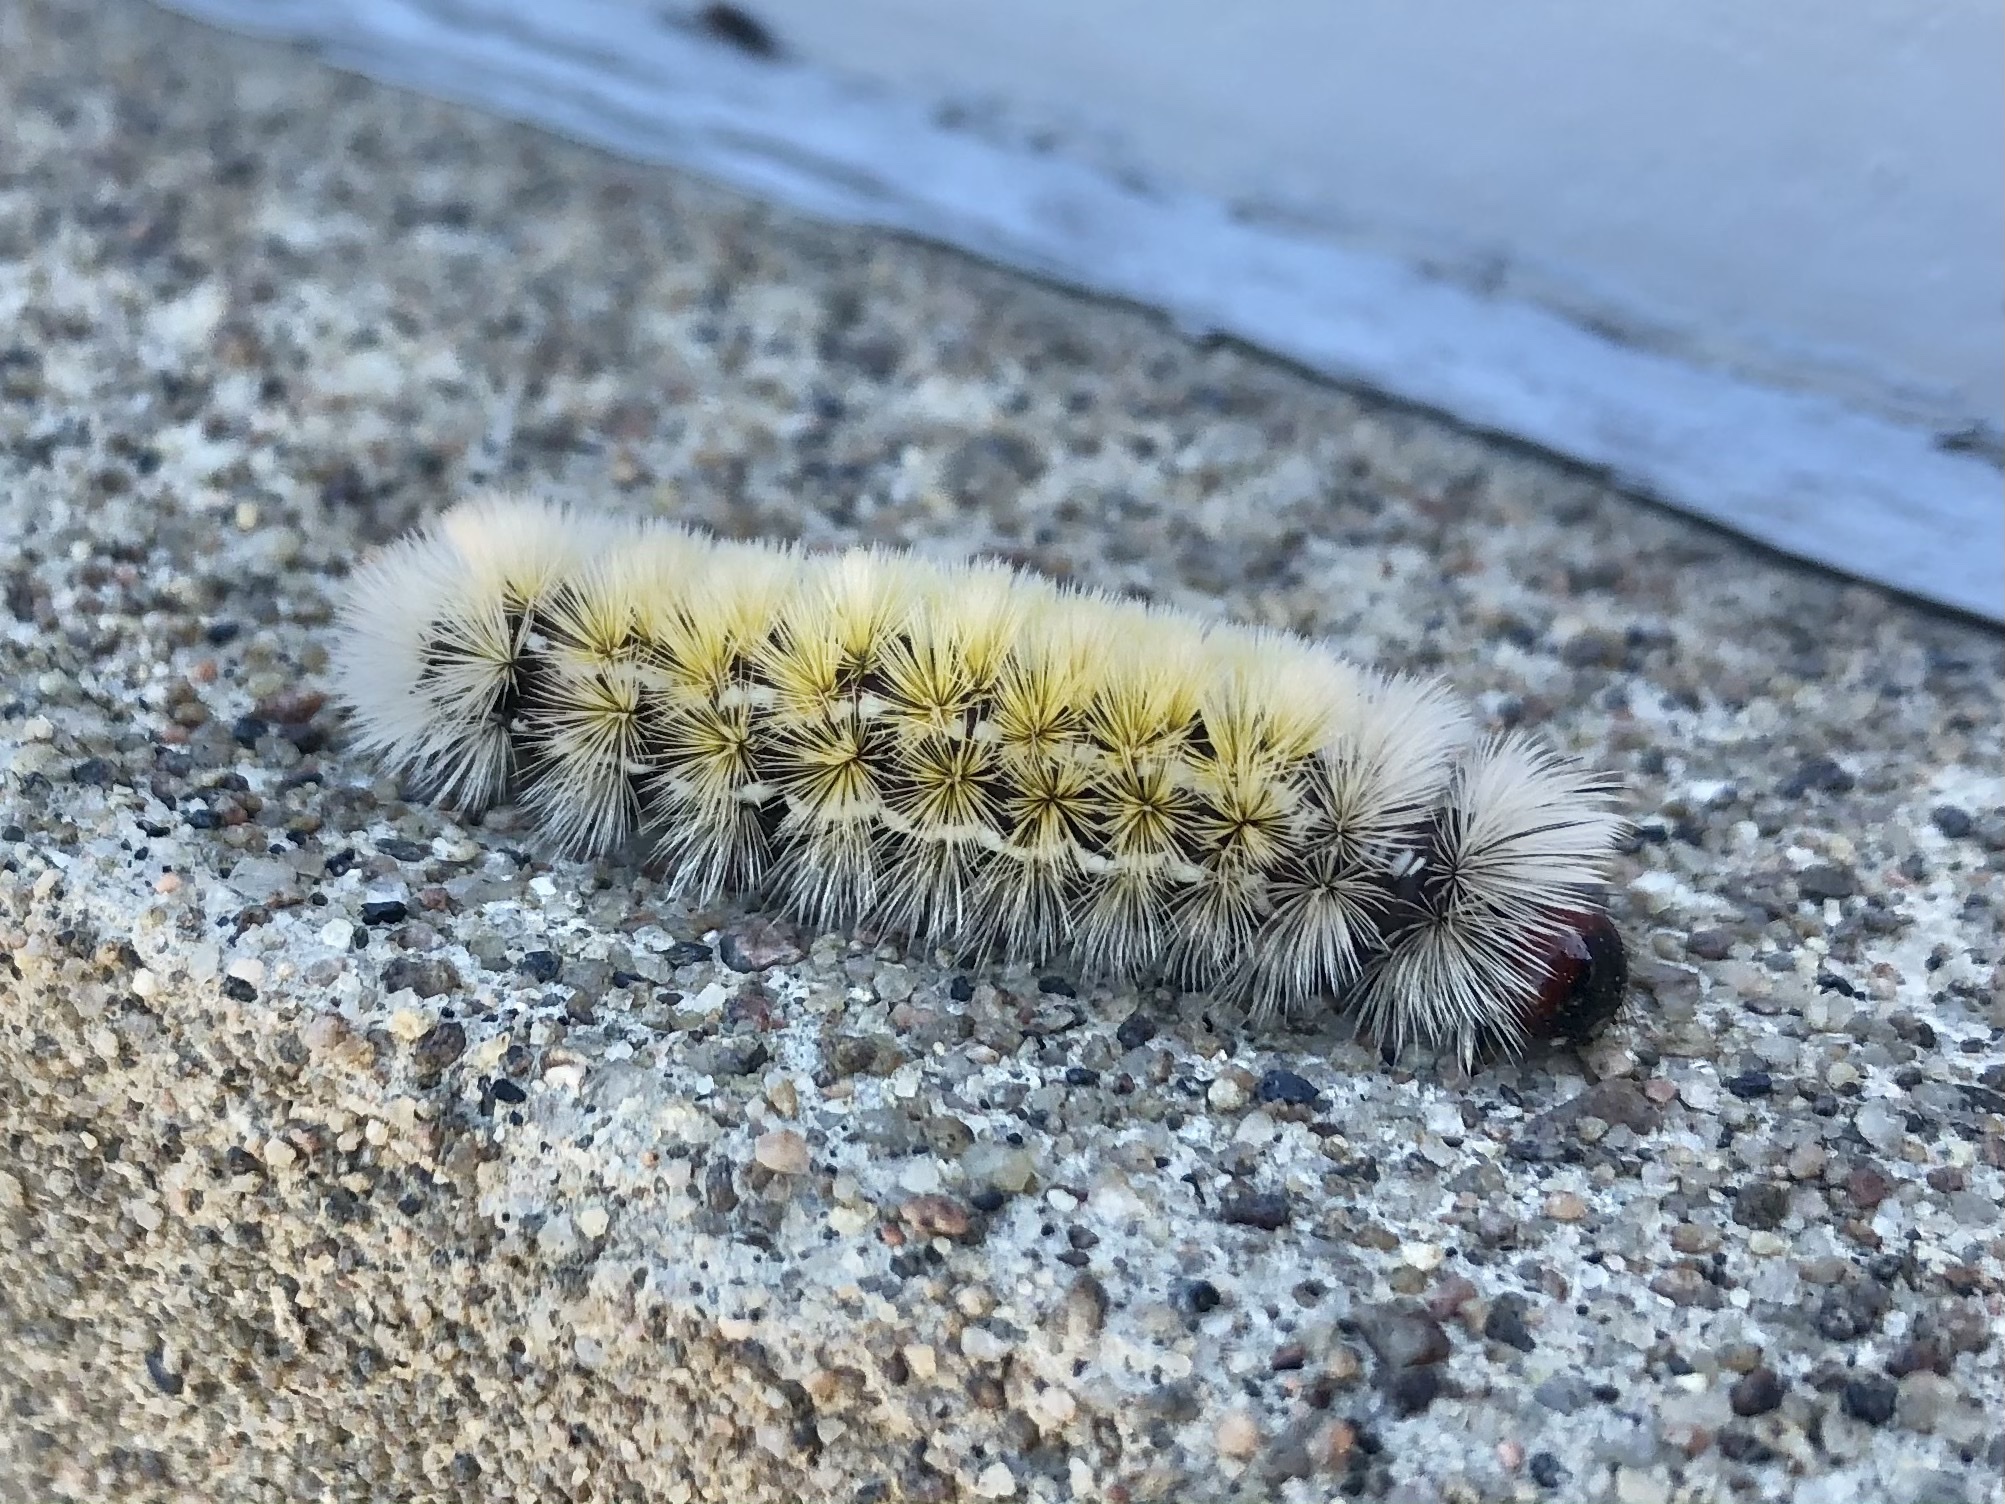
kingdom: Animalia
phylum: Arthropoda
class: Insecta
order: Lepidoptera
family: Erebidae
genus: Ctenucha
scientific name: Ctenucha virginica
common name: Virginia ctenucha moth
